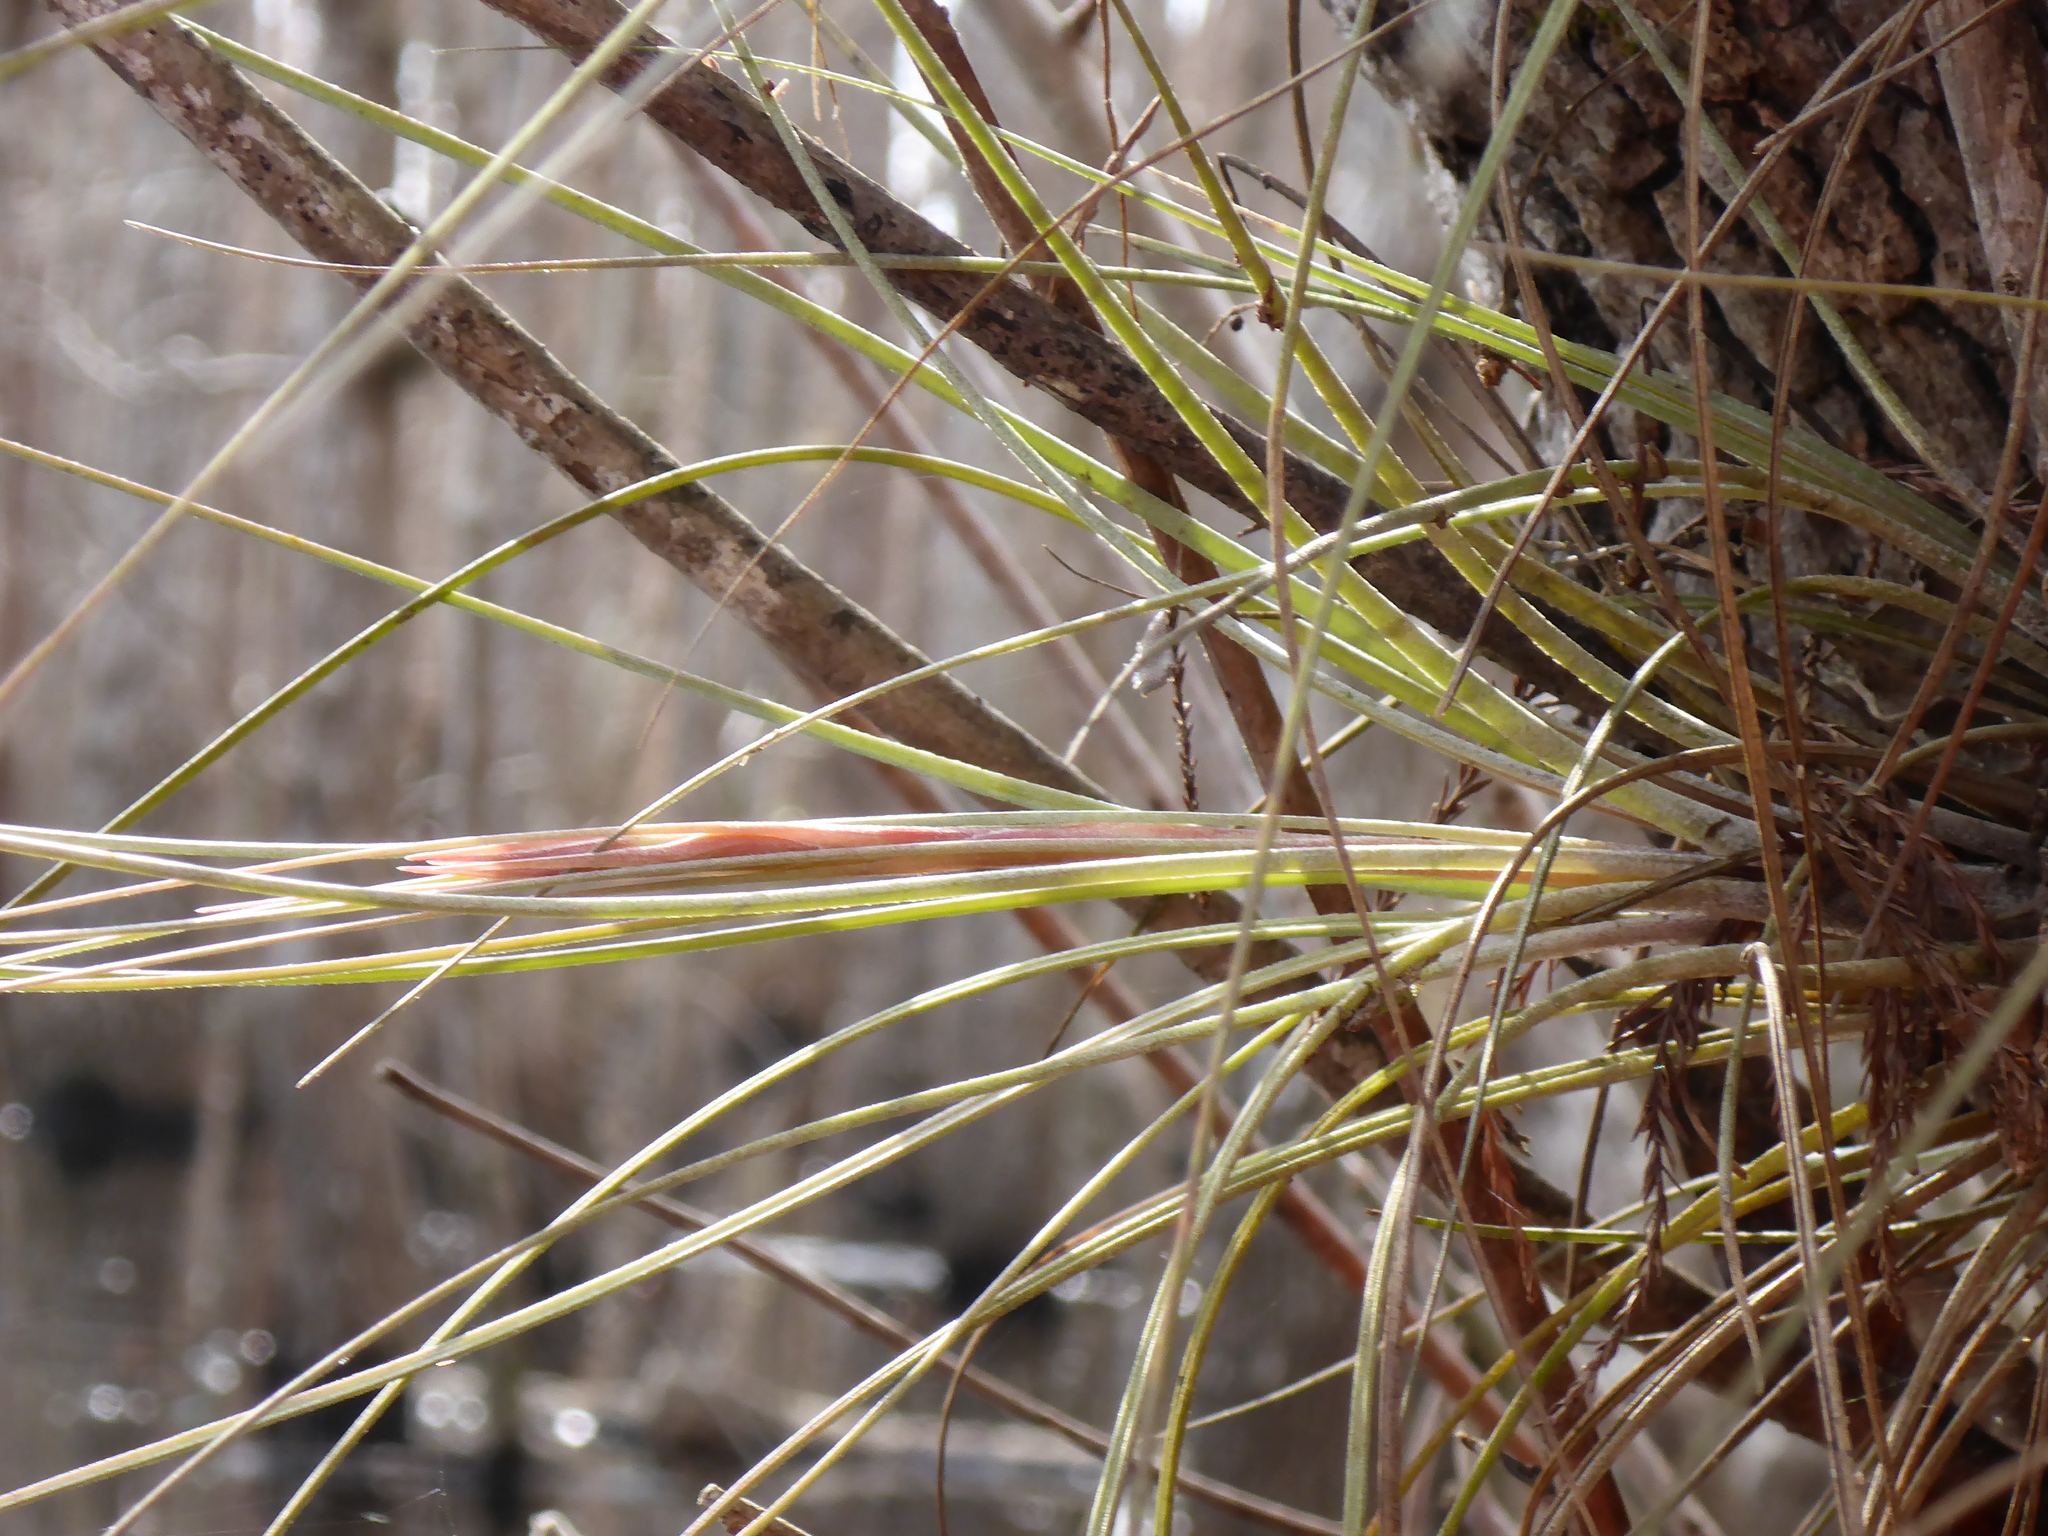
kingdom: Plantae
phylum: Tracheophyta
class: Liliopsida
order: Poales
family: Bromeliaceae
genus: Tillandsia
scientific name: Tillandsia bartramii
